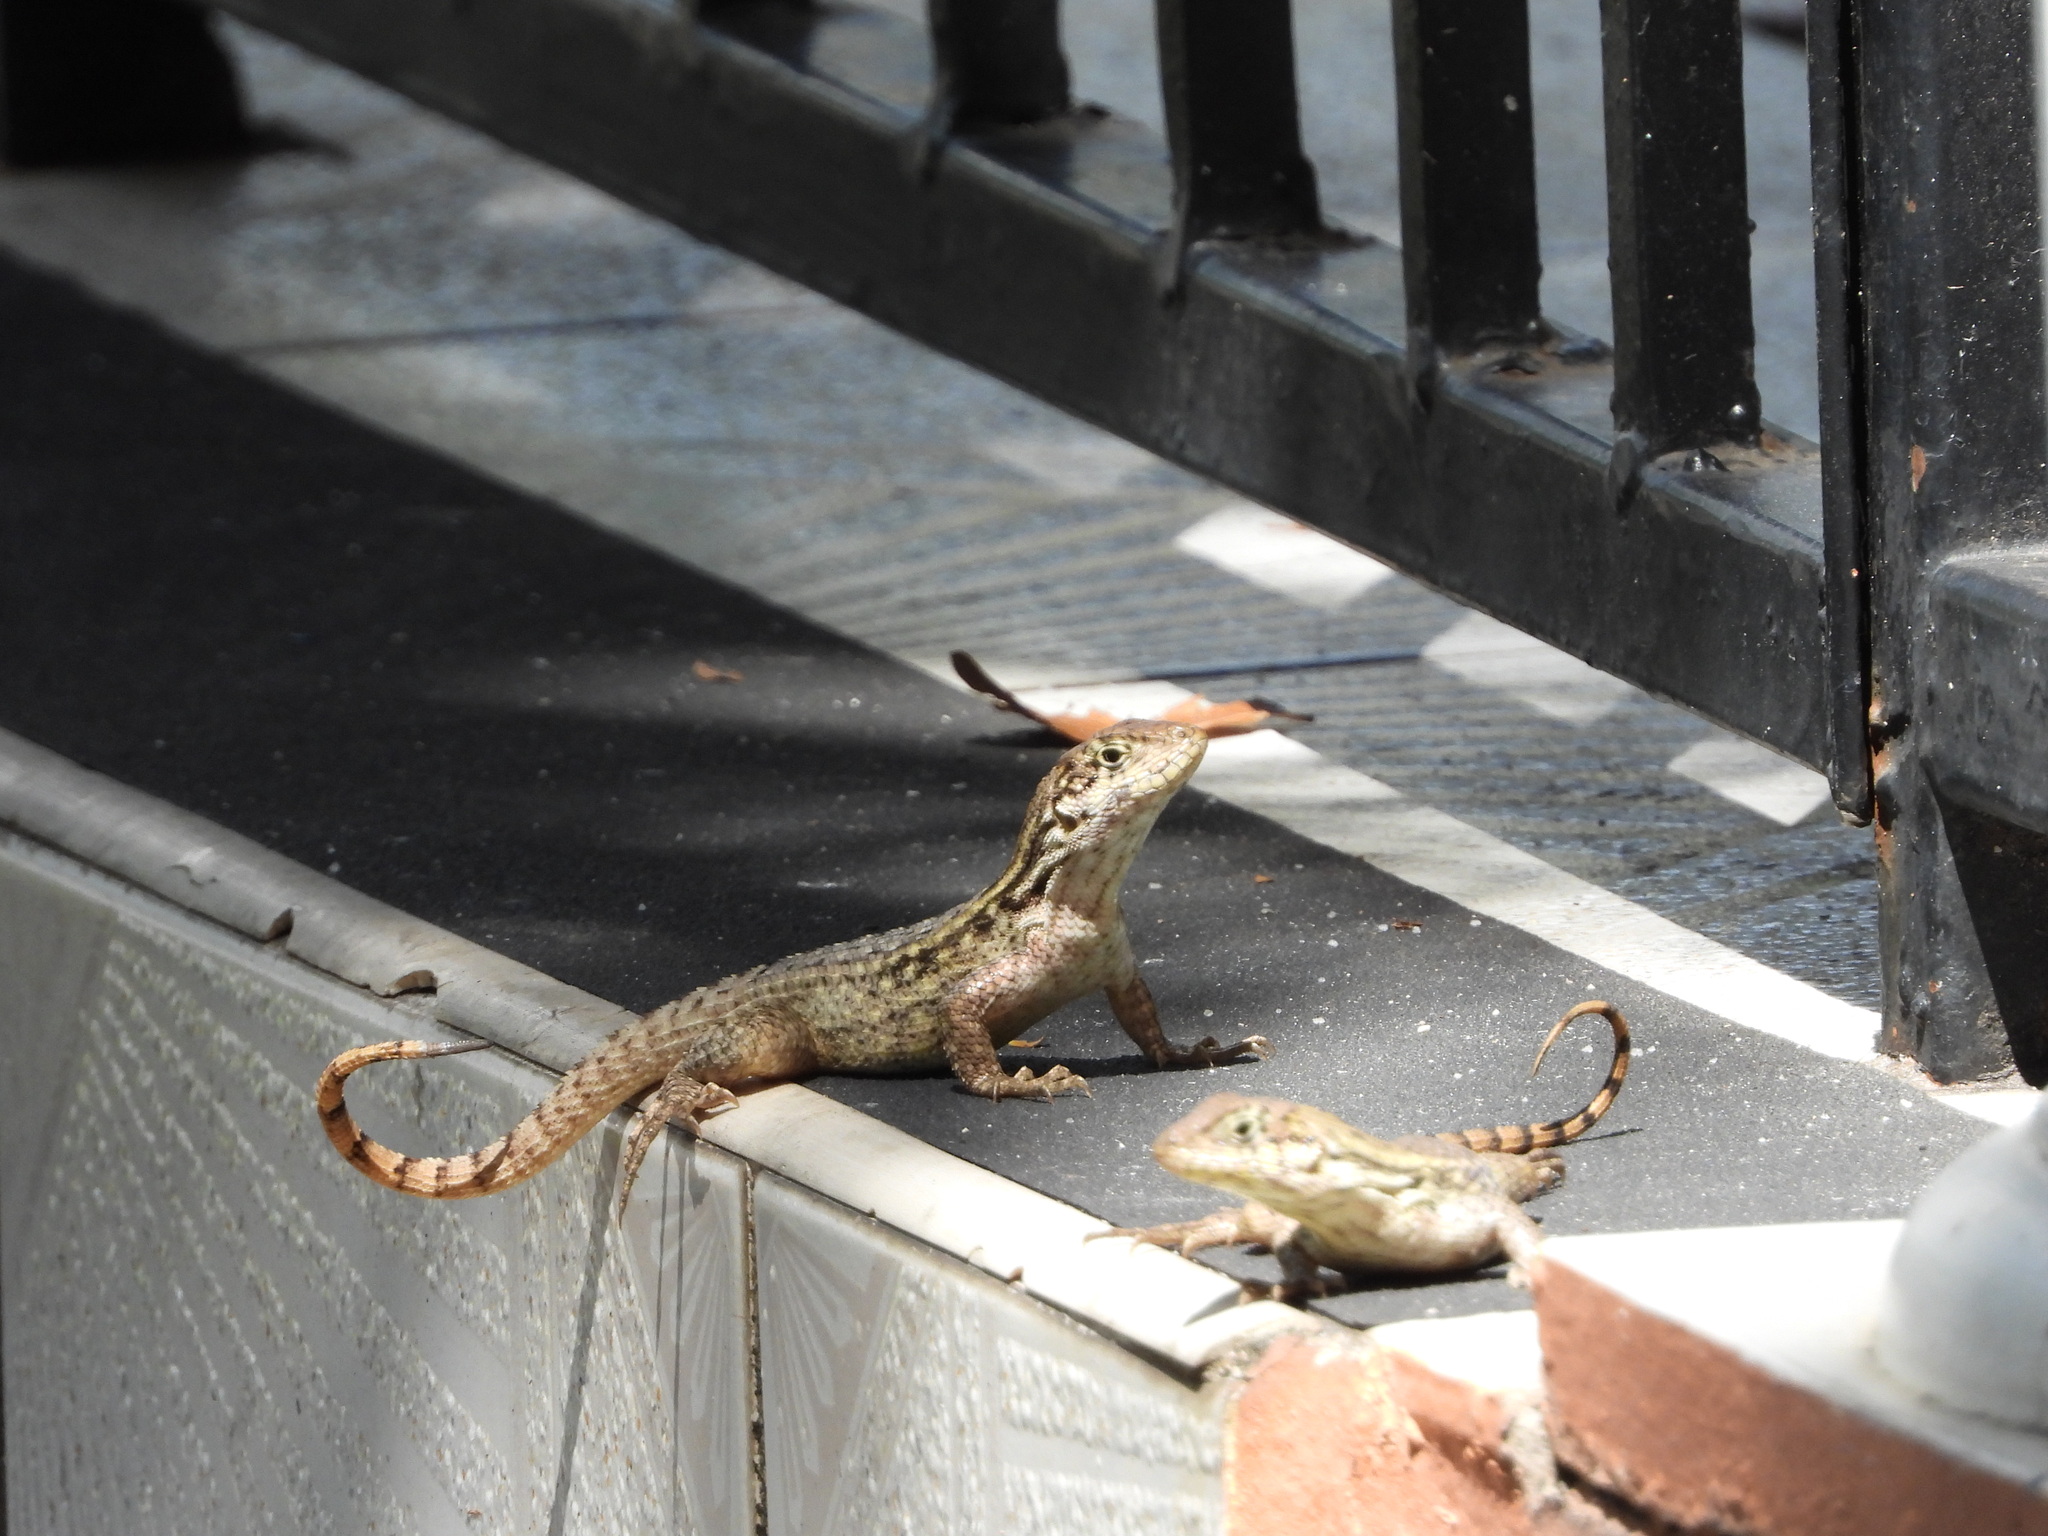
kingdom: Animalia
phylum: Chordata
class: Squamata
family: Leiocephalidae
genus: Leiocephalus
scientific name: Leiocephalus carinatus
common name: Northern curly-tailed lizard
